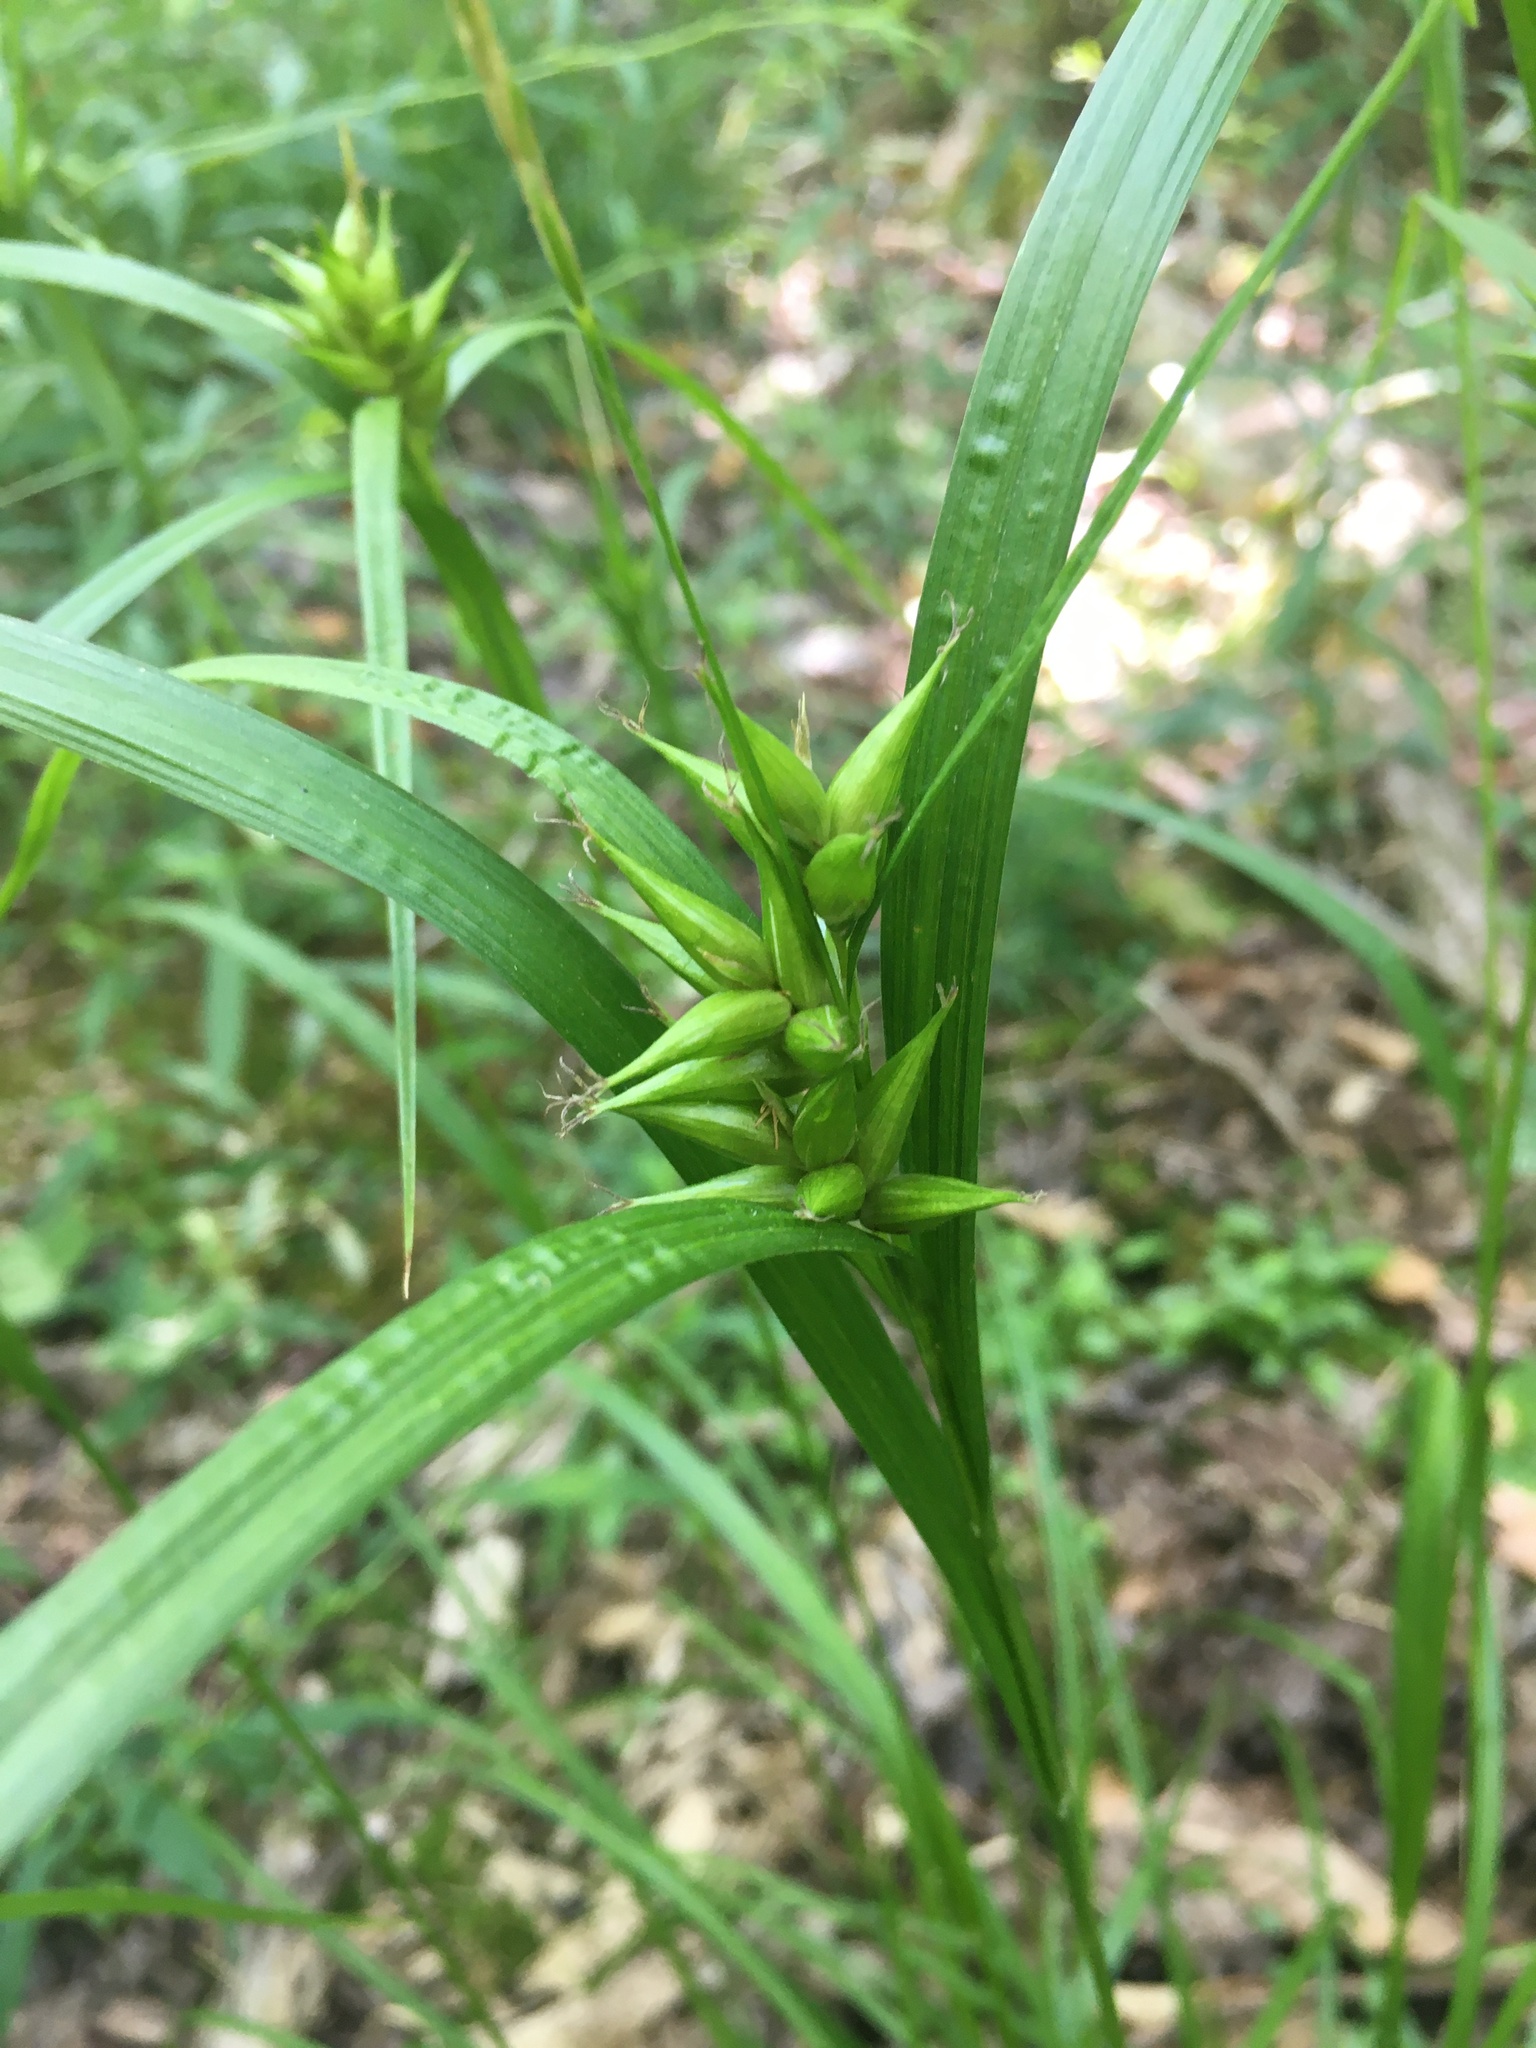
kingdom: Plantae
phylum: Tracheophyta
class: Liliopsida
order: Poales
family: Cyperaceae
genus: Carex
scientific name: Carex intumescens
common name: Greater bladder sedge
